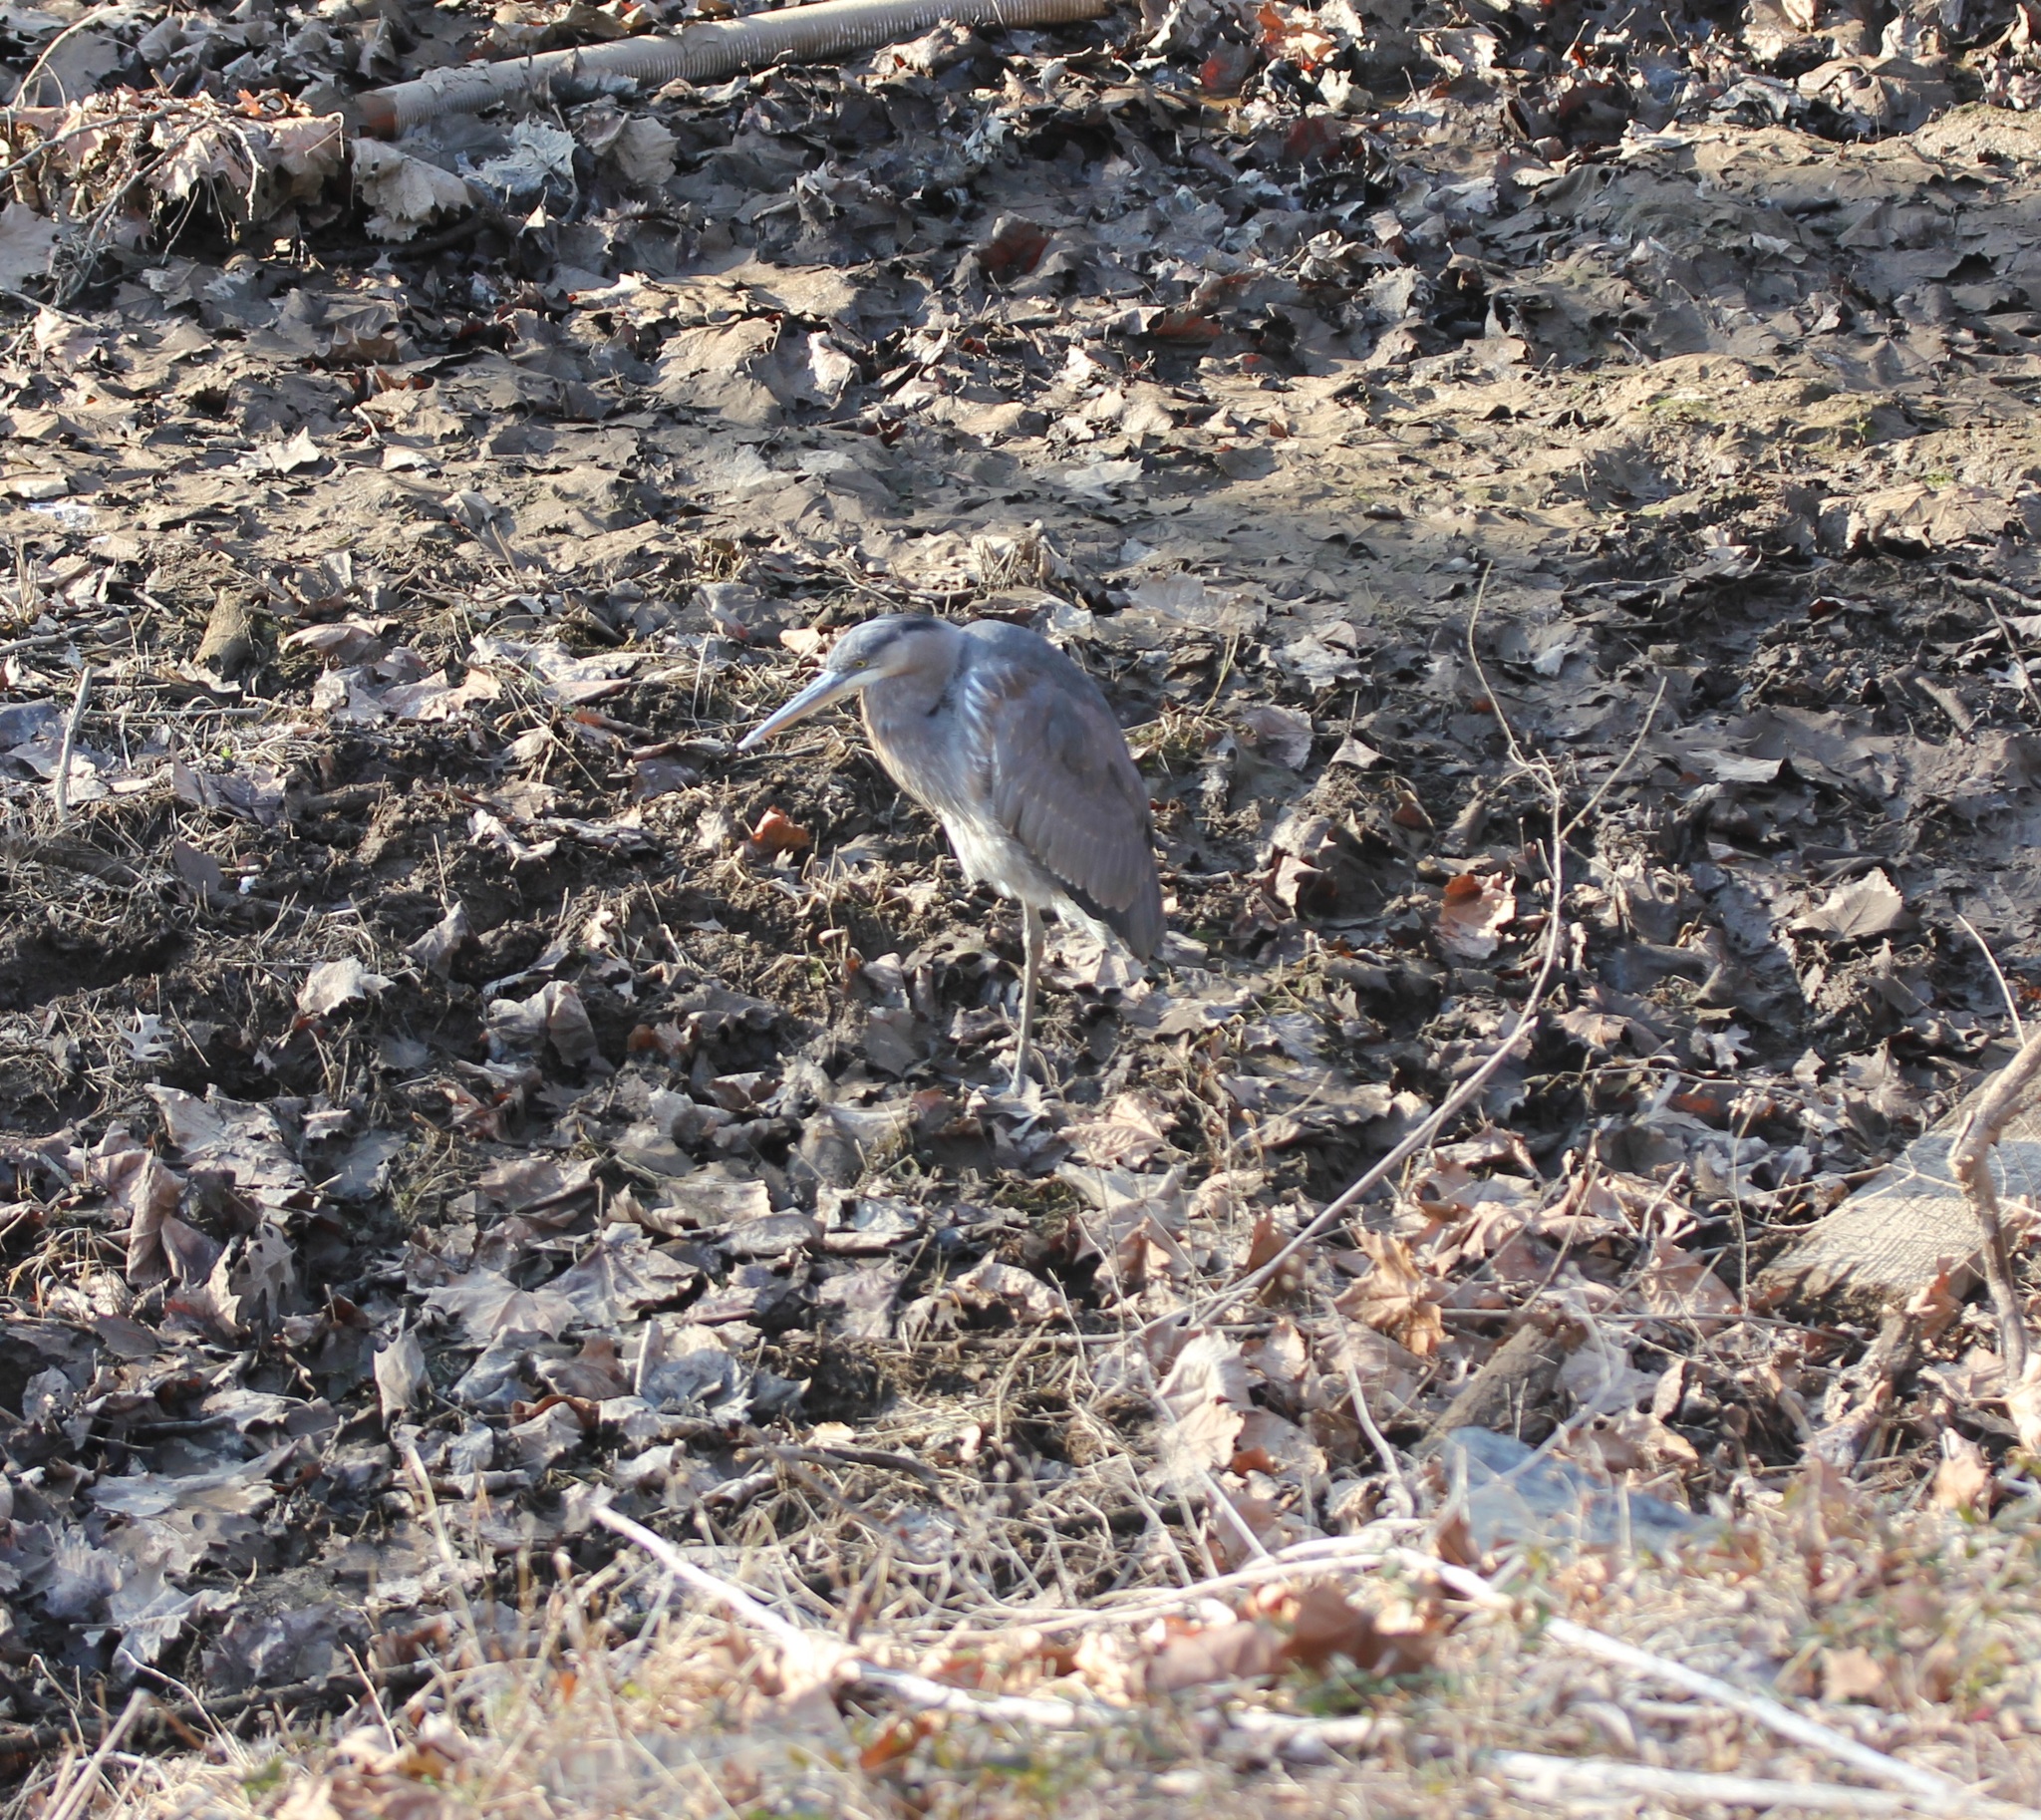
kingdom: Animalia
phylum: Chordata
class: Aves
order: Pelecaniformes
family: Ardeidae
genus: Ardea
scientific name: Ardea herodias
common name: Great blue heron
